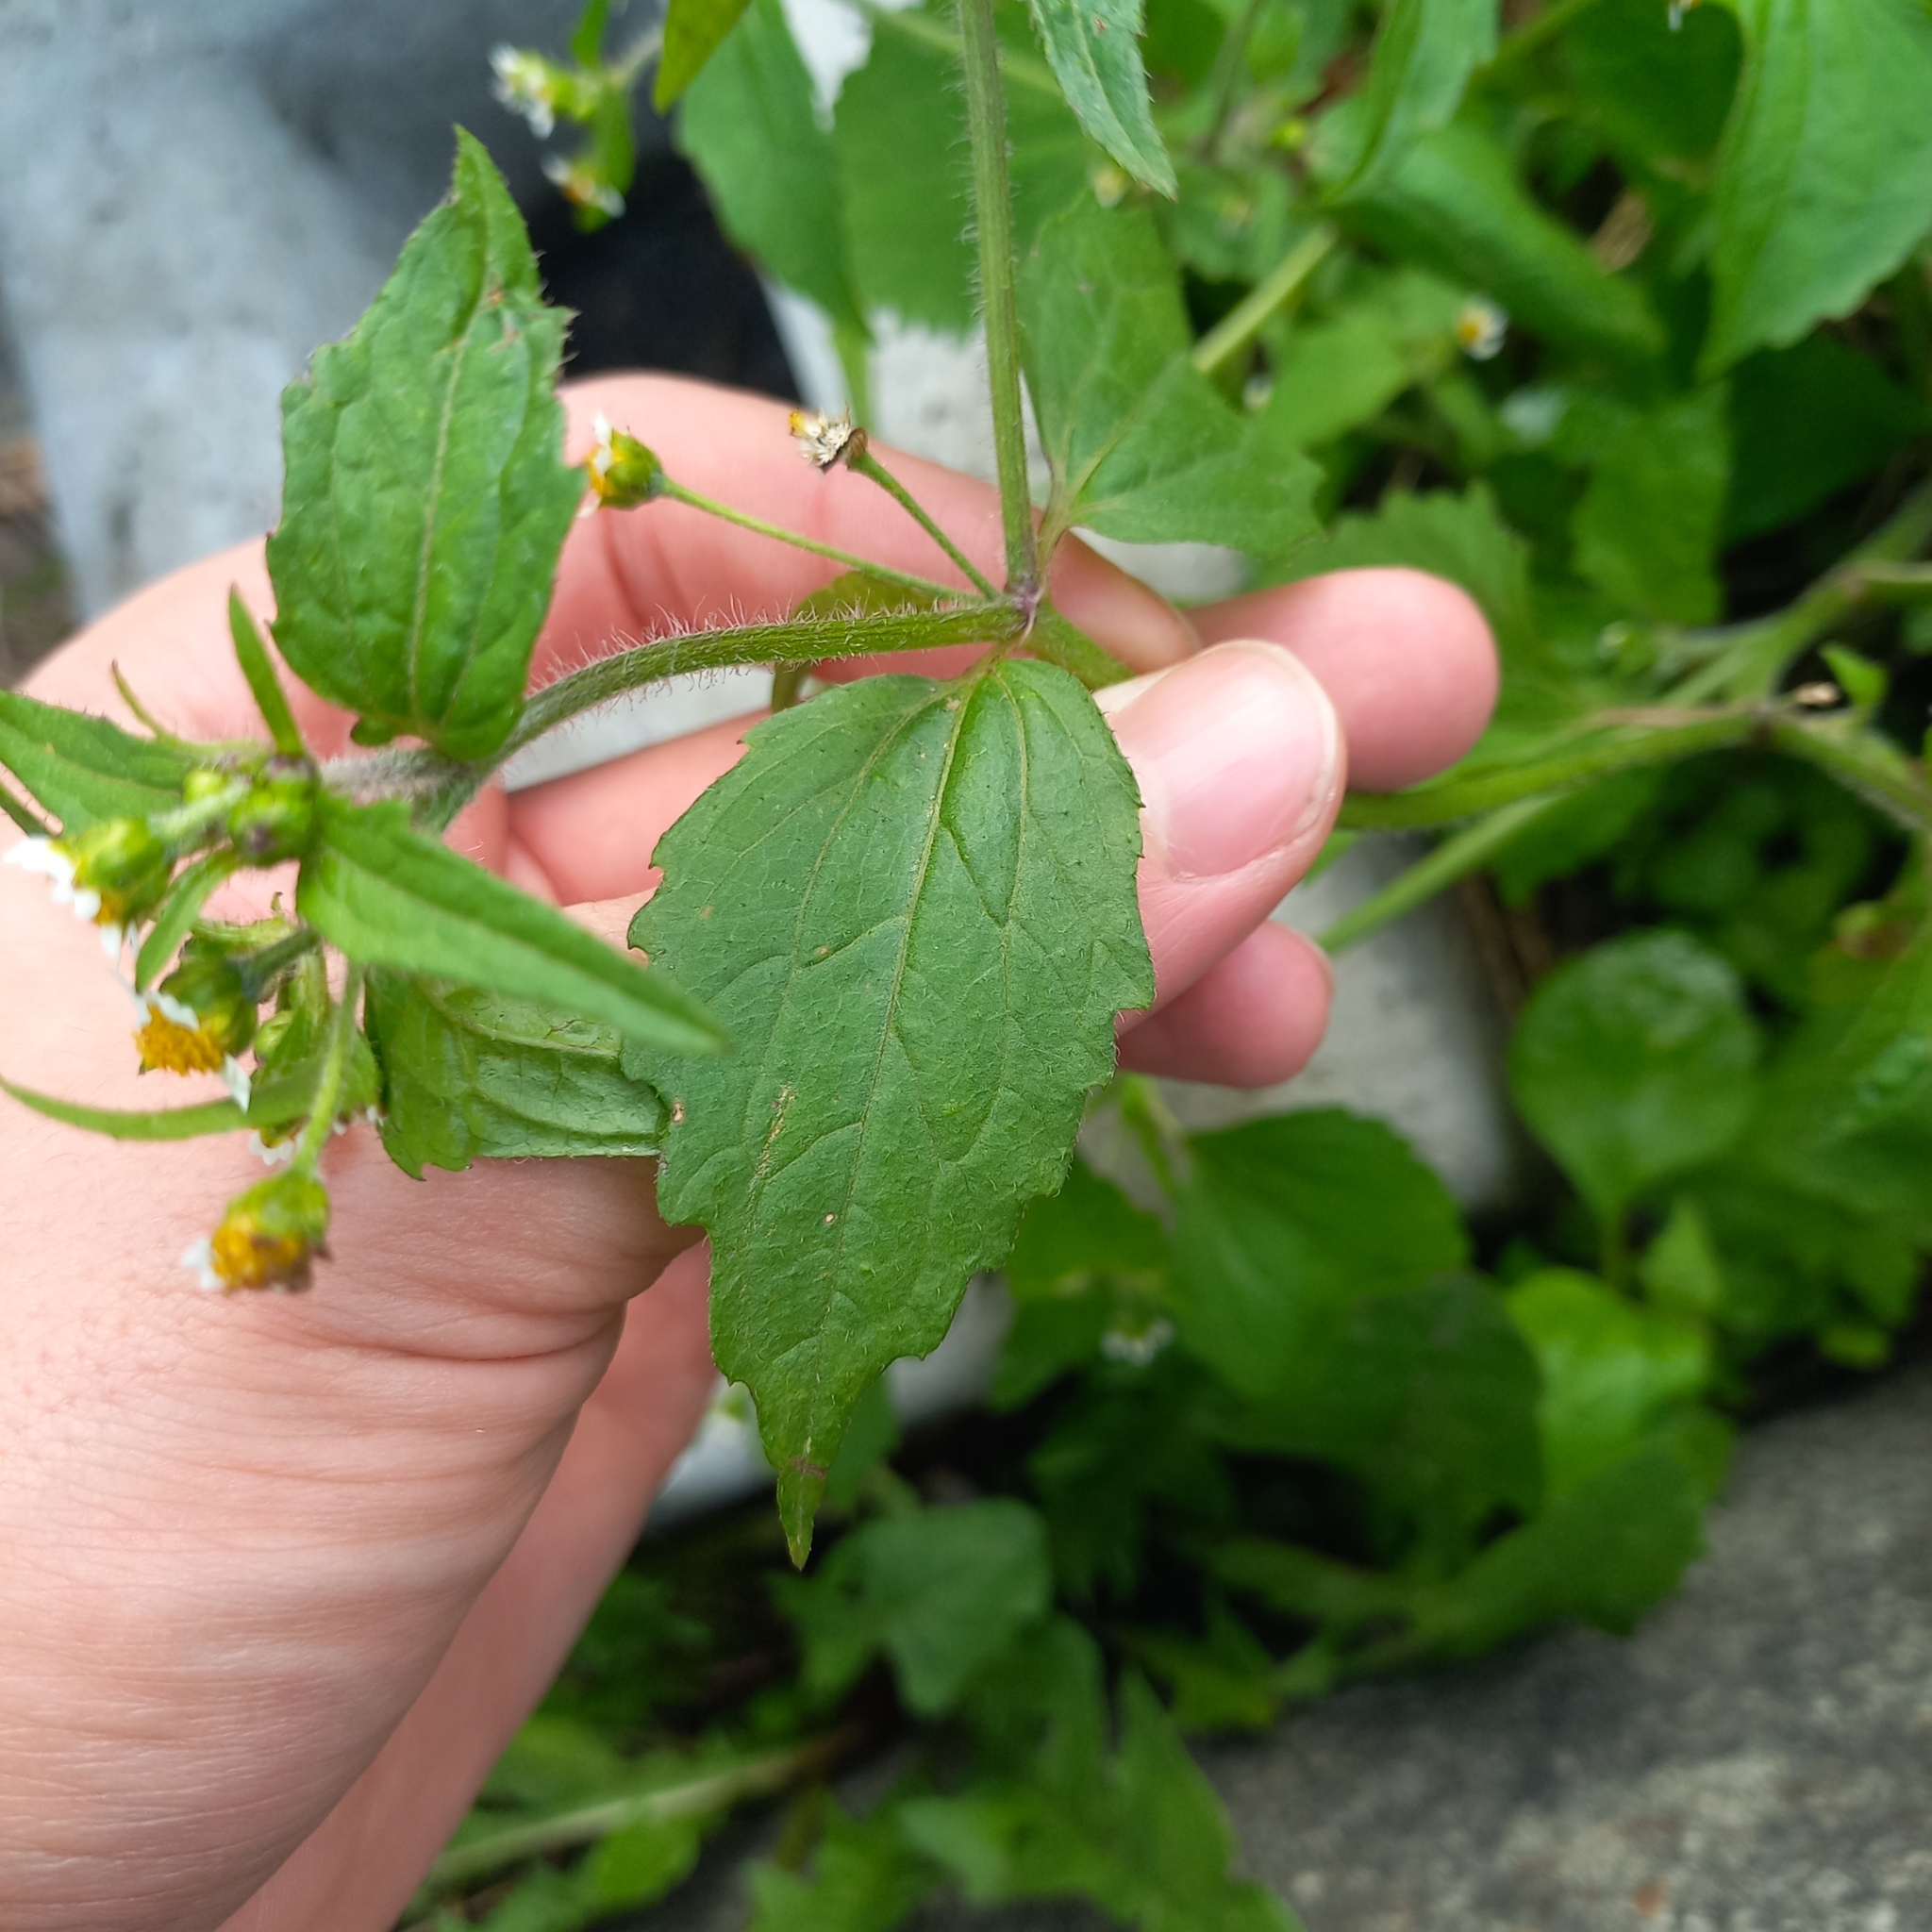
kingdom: Plantae
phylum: Tracheophyta
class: Magnoliopsida
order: Asterales
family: Asteraceae
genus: Galinsoga
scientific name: Galinsoga quadriradiata
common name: Shaggy soldier
